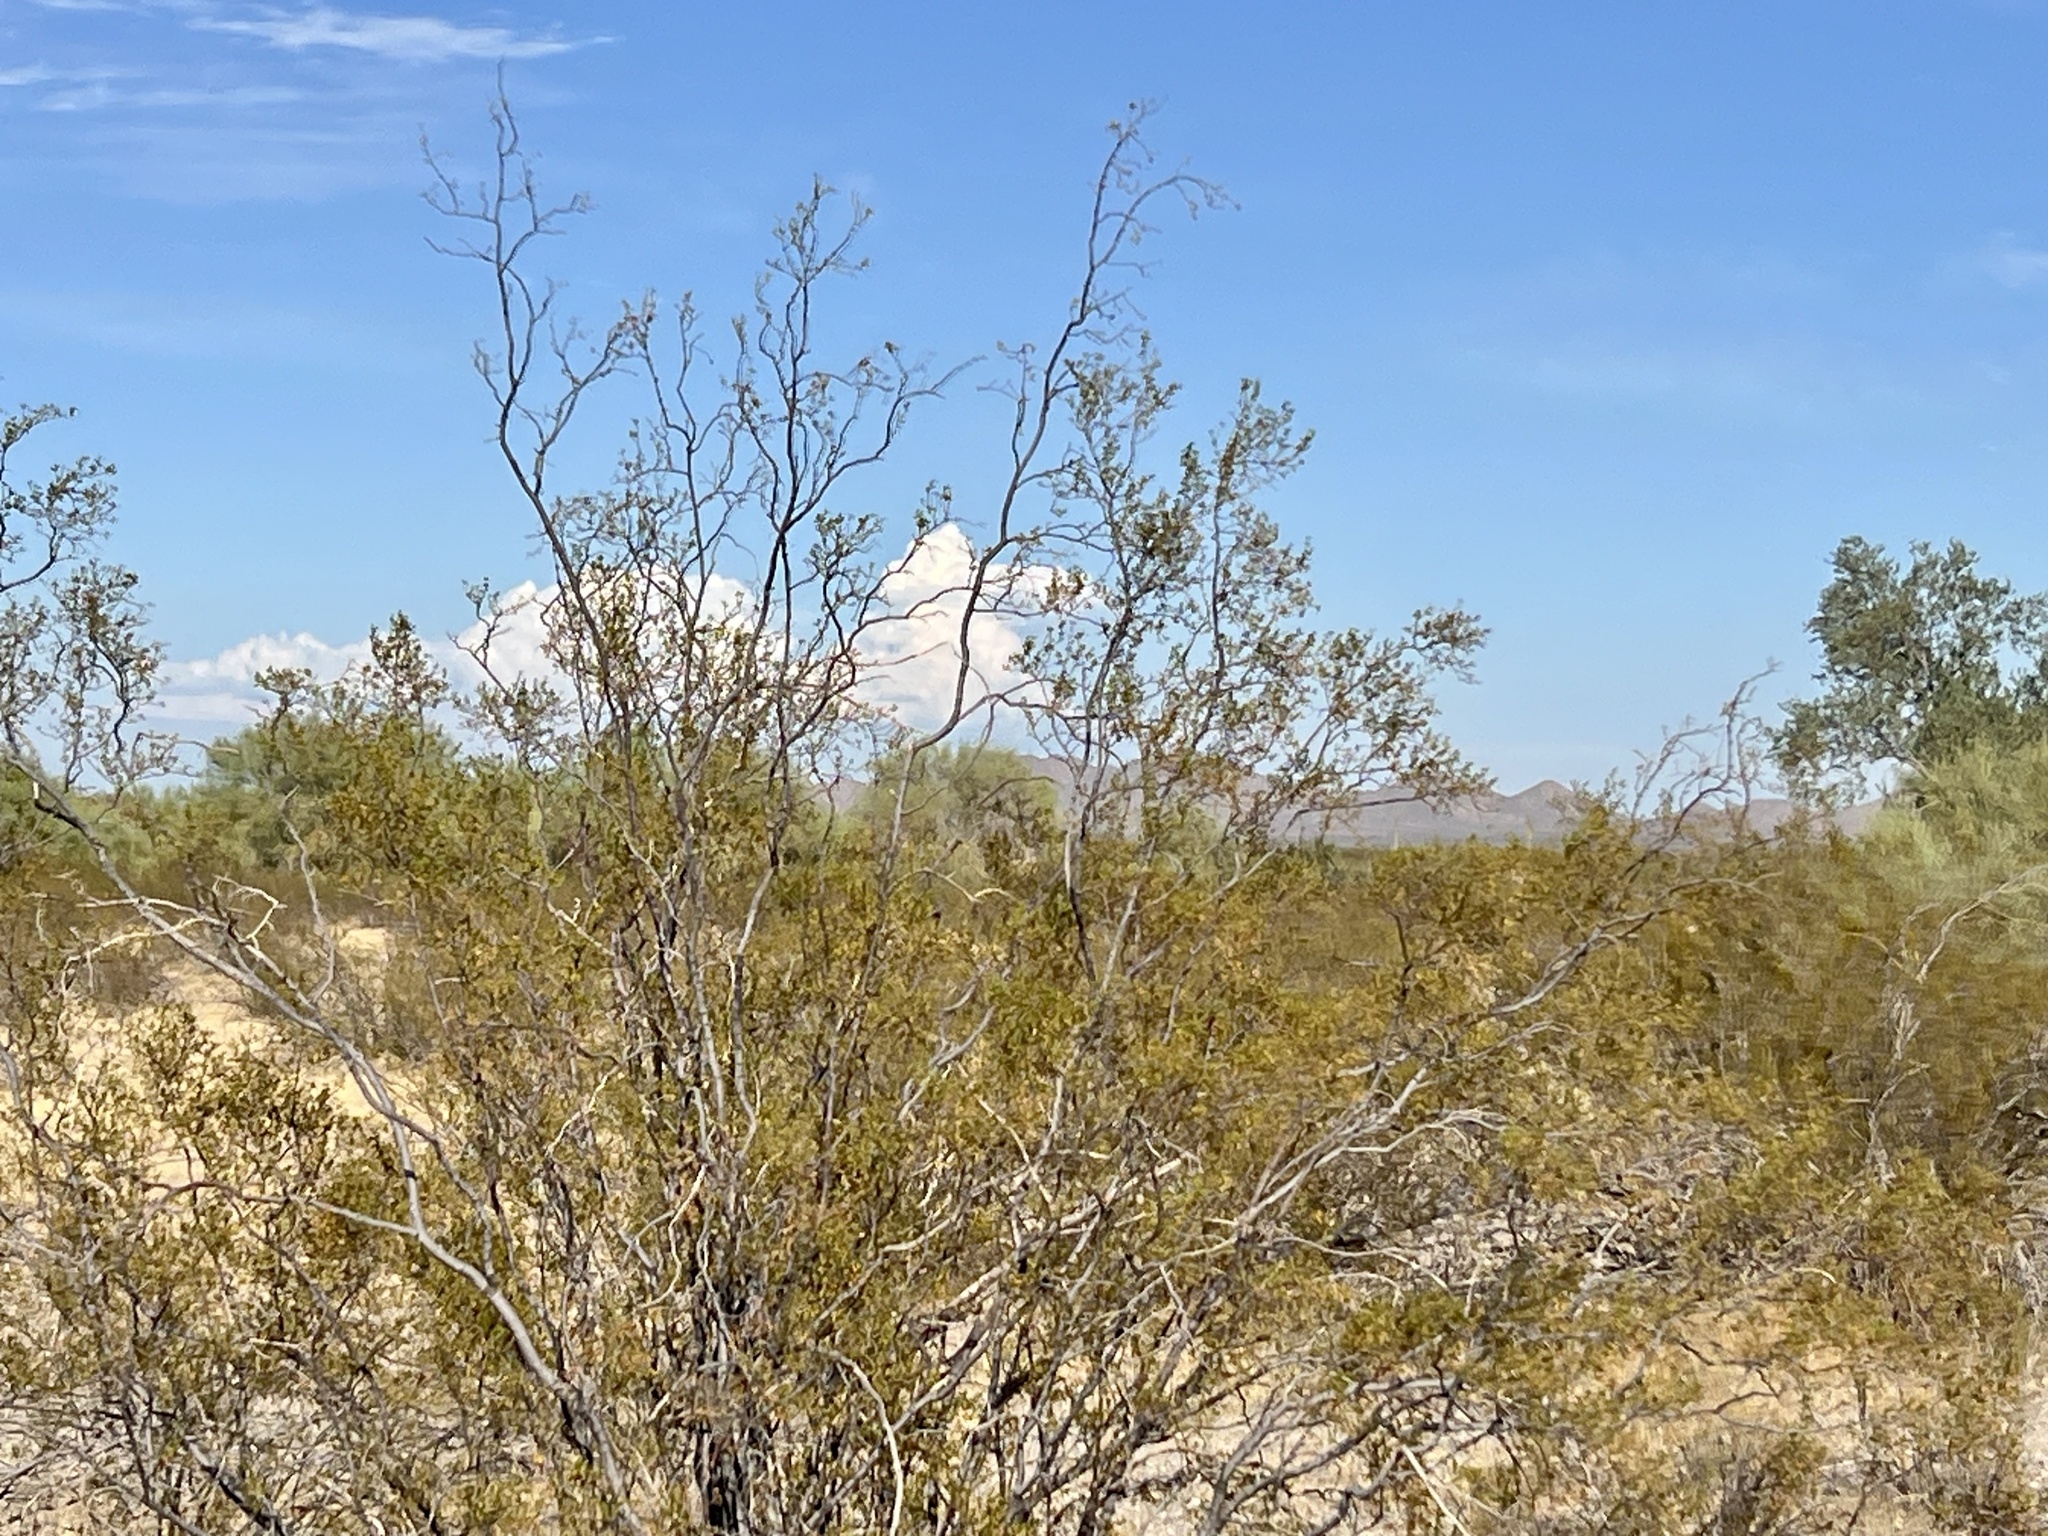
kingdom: Plantae
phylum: Tracheophyta
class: Magnoliopsida
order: Zygophyllales
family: Zygophyllaceae
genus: Larrea
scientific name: Larrea tridentata
